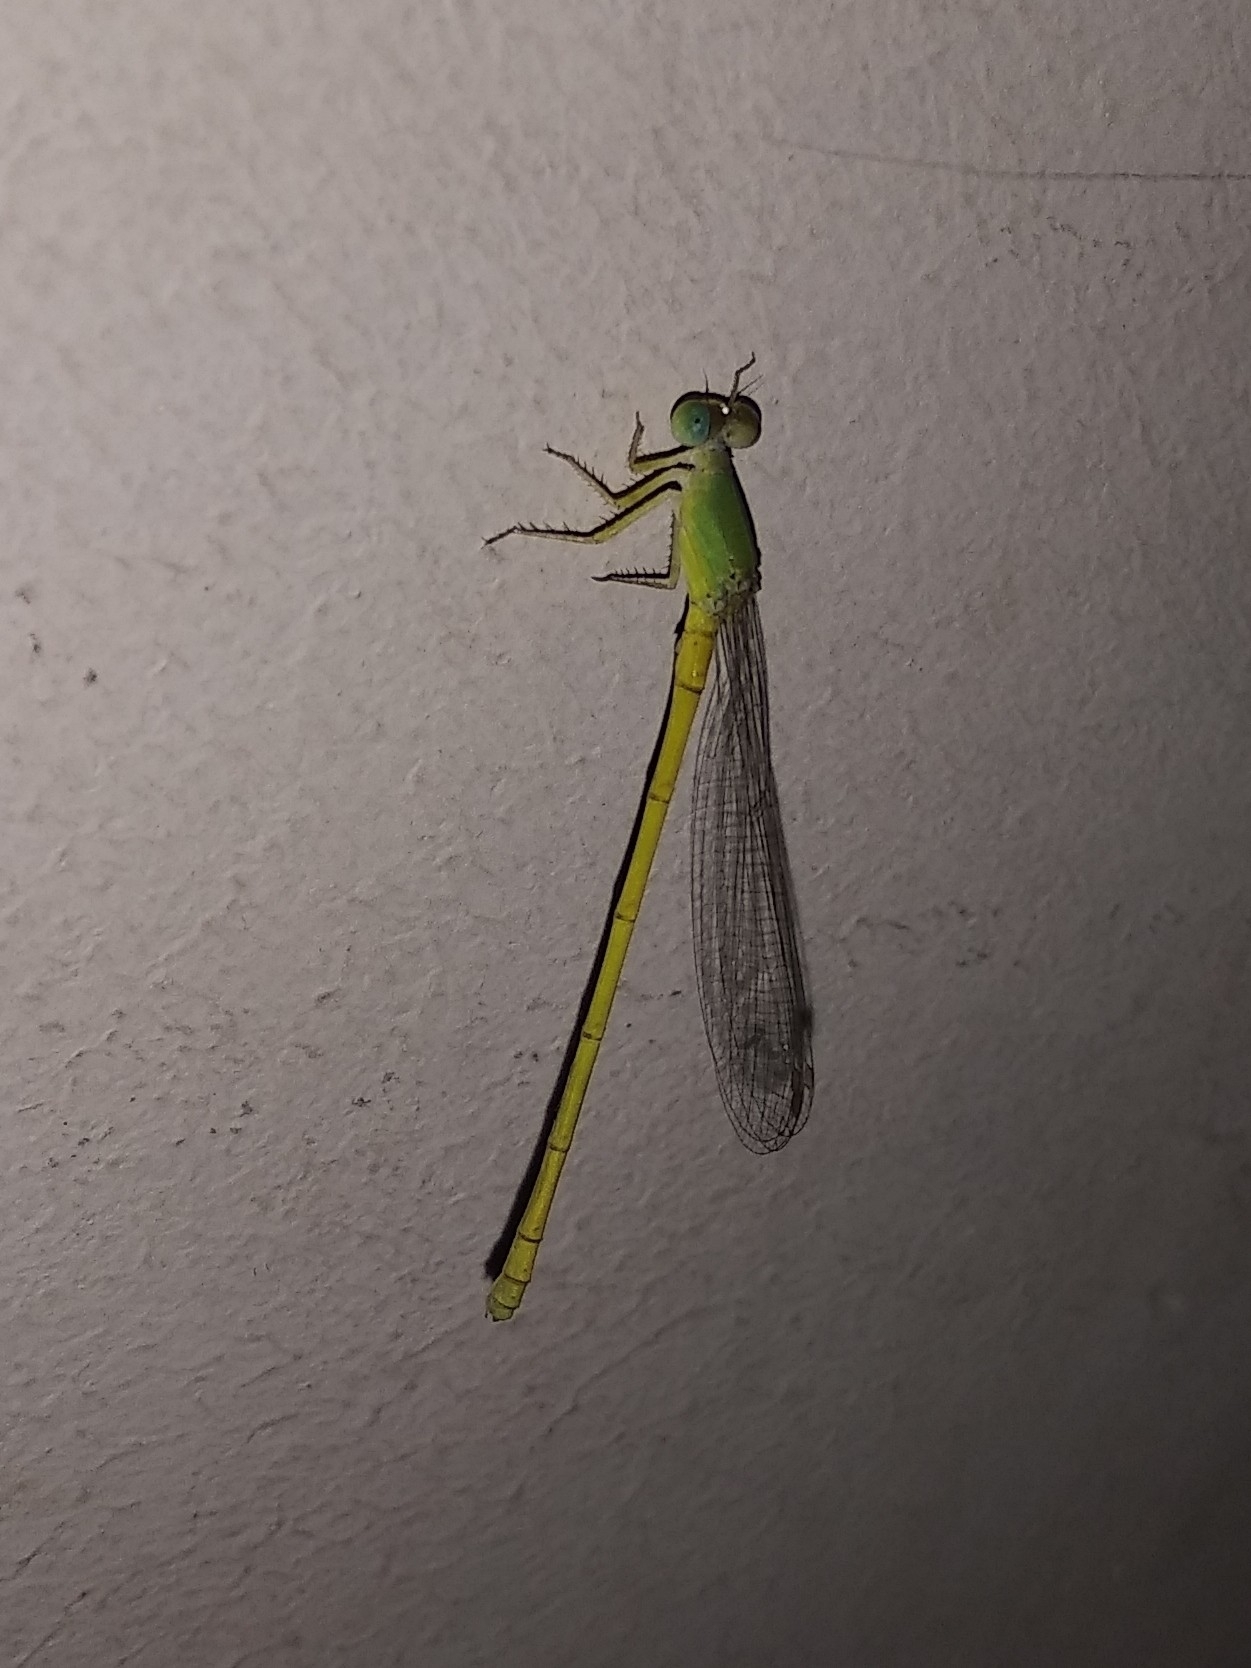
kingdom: Animalia
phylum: Arthropoda
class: Insecta
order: Odonata
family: Coenagrionidae
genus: Ceriagrion
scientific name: Ceriagrion coromandelianum
